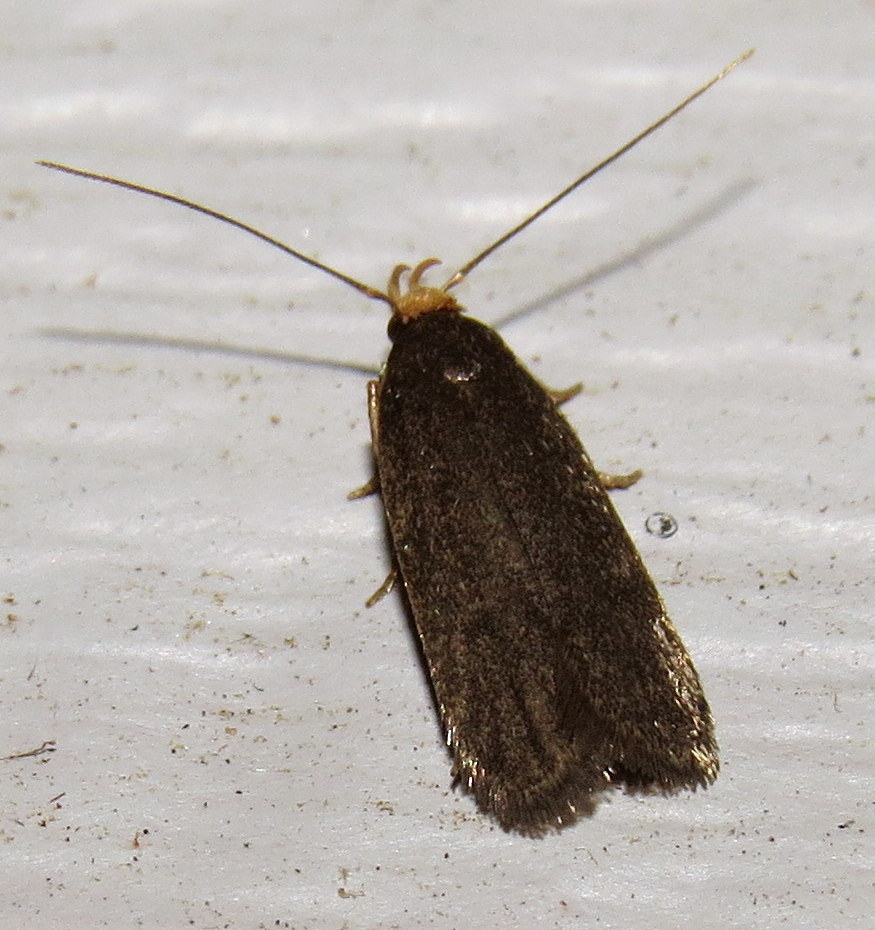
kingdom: Animalia
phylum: Arthropoda
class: Insecta
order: Lepidoptera
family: Autostichidae
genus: Glyphidocera
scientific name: Glyphidocera lithodoxa
